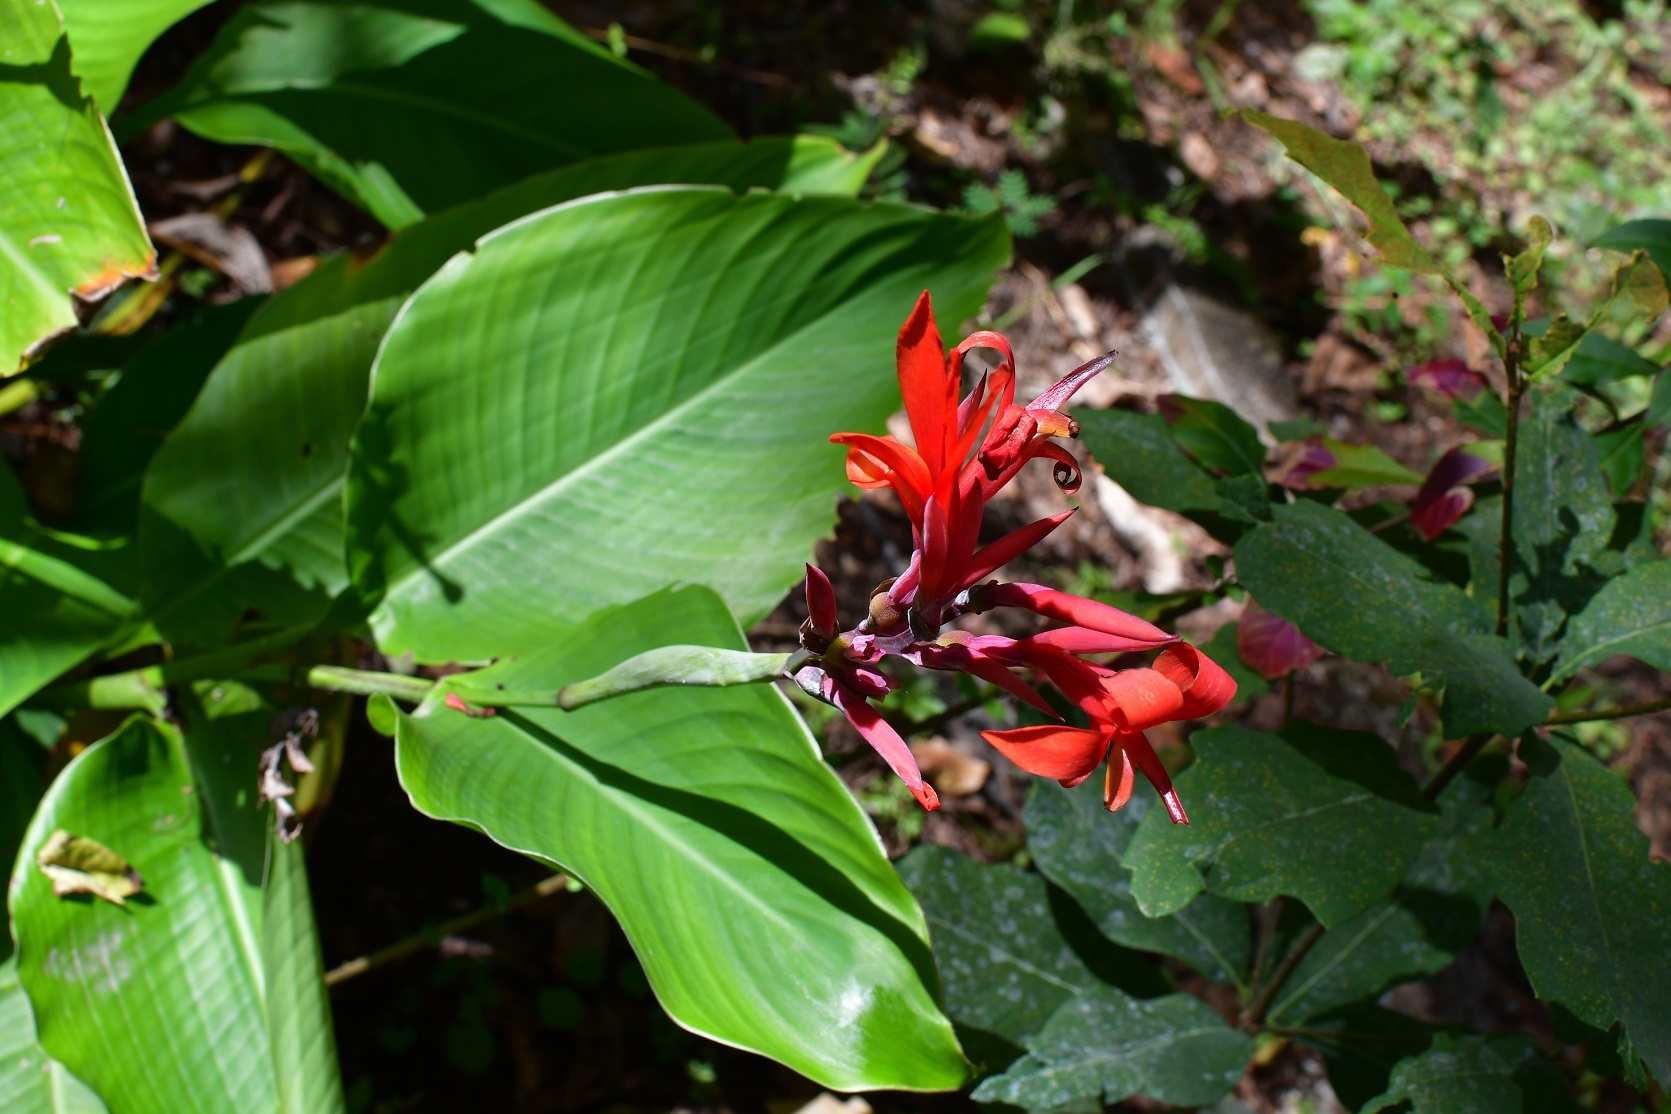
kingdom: Plantae
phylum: Tracheophyta
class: Liliopsida
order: Zingiberales
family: Cannaceae
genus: Canna
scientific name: Canna indica
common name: Indian shot
